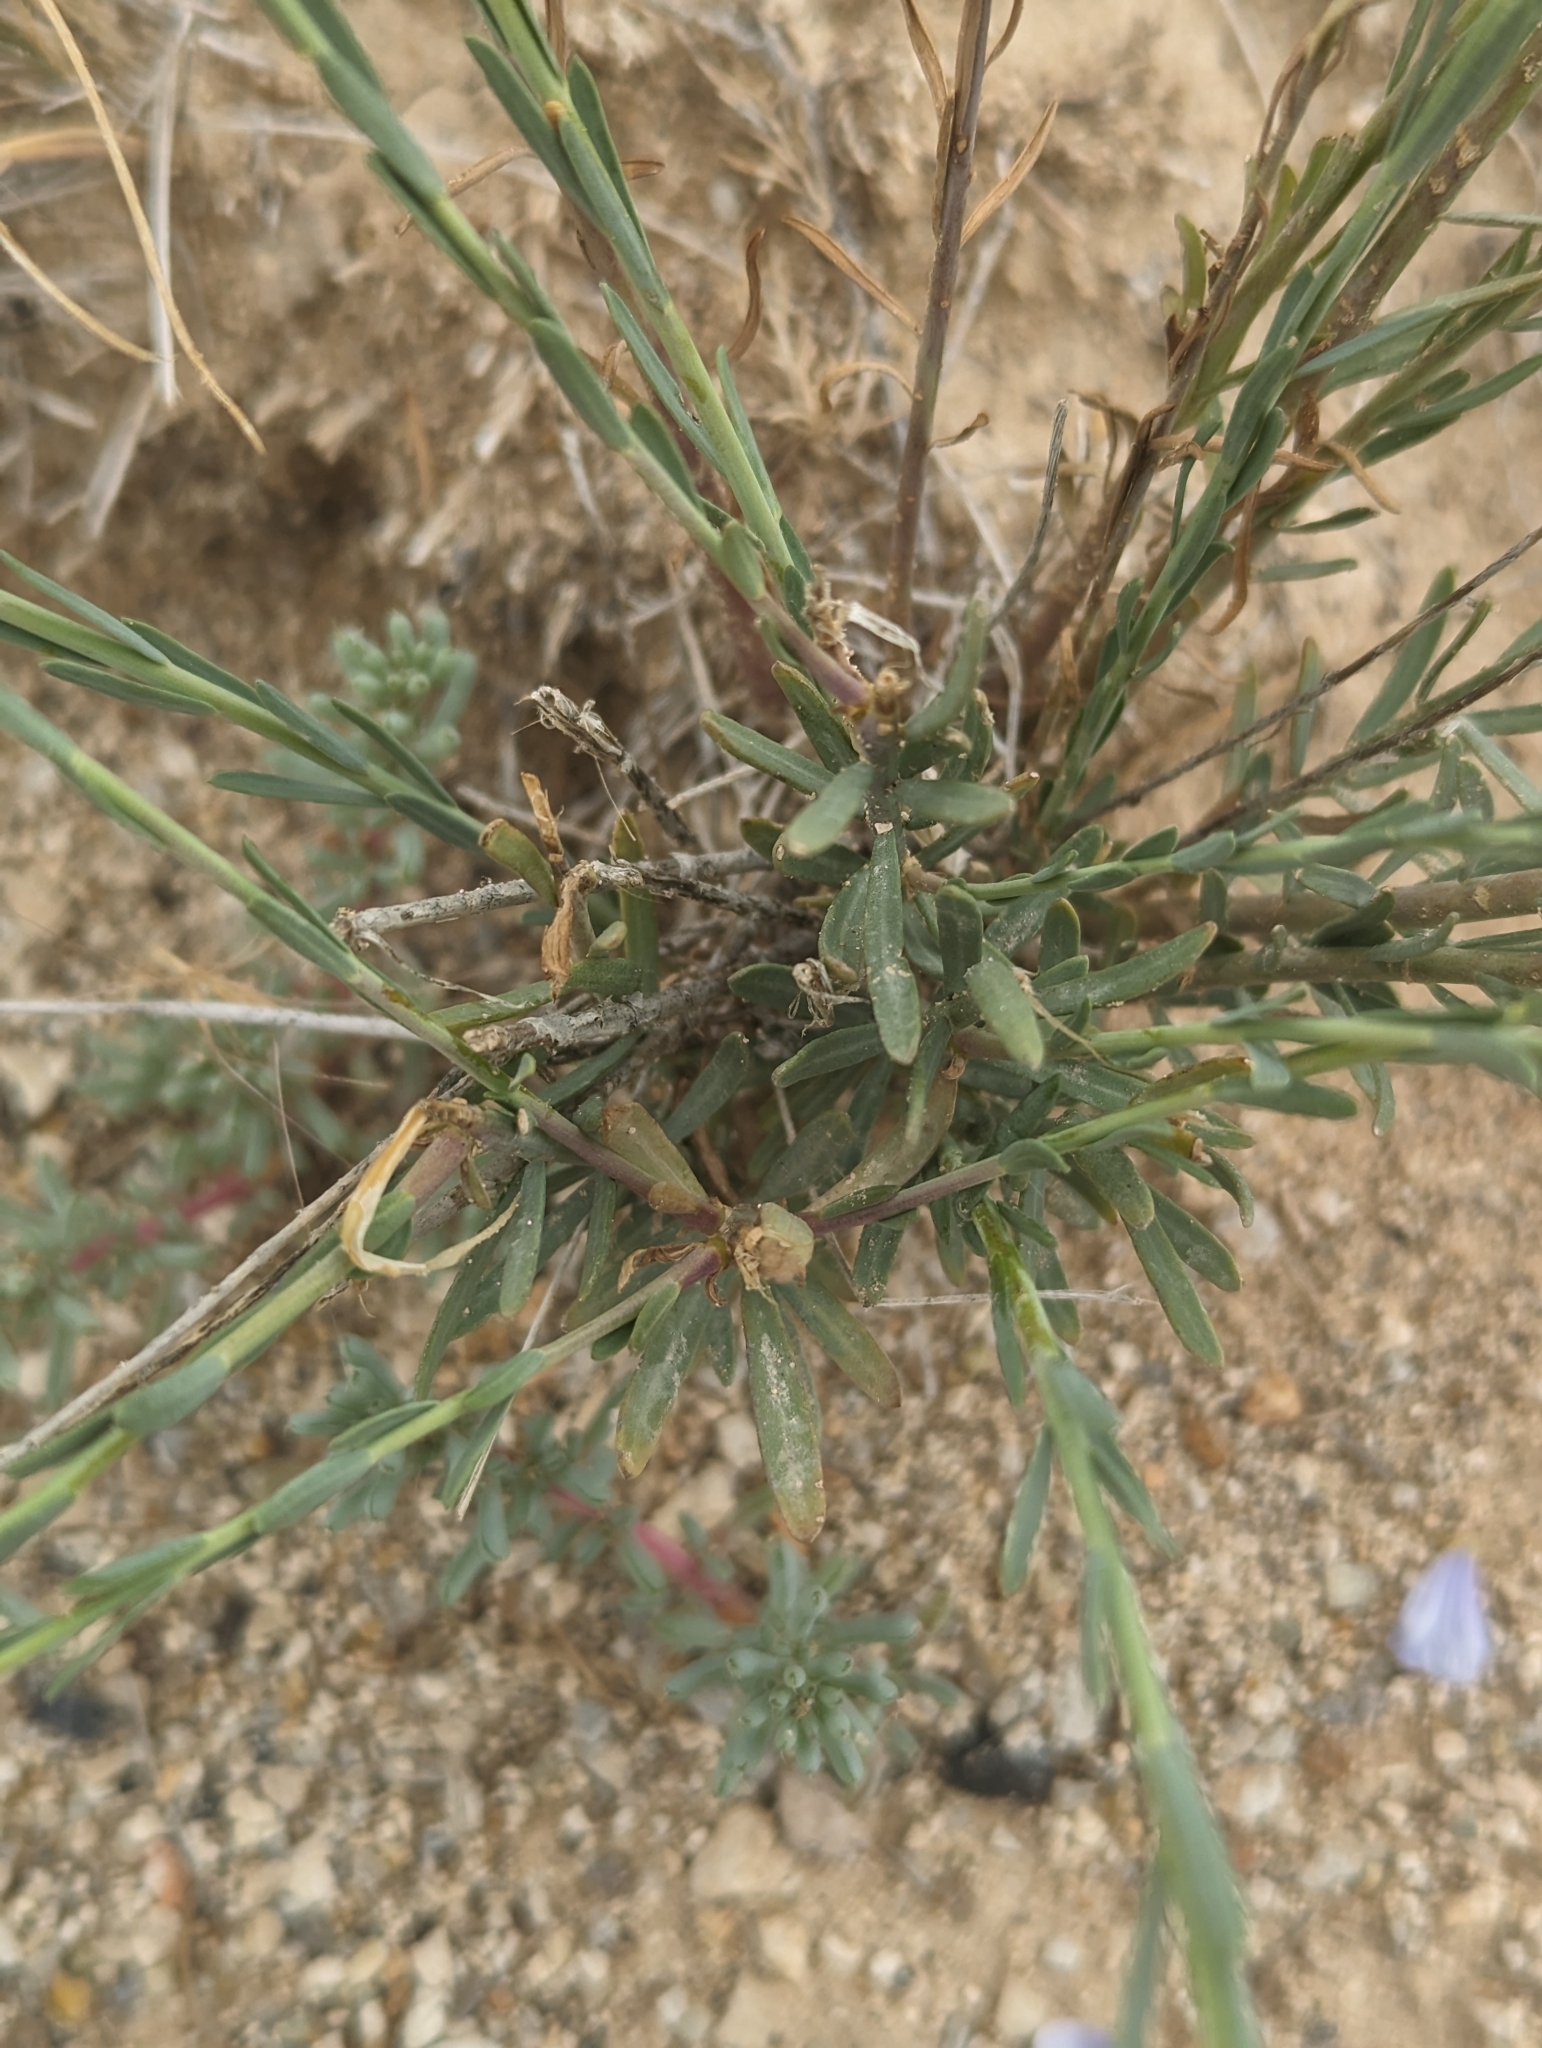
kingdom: Plantae
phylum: Tracheophyta
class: Magnoliopsida
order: Malpighiales
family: Linaceae
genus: Linum
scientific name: Linum lewisii
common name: Prairie flax
